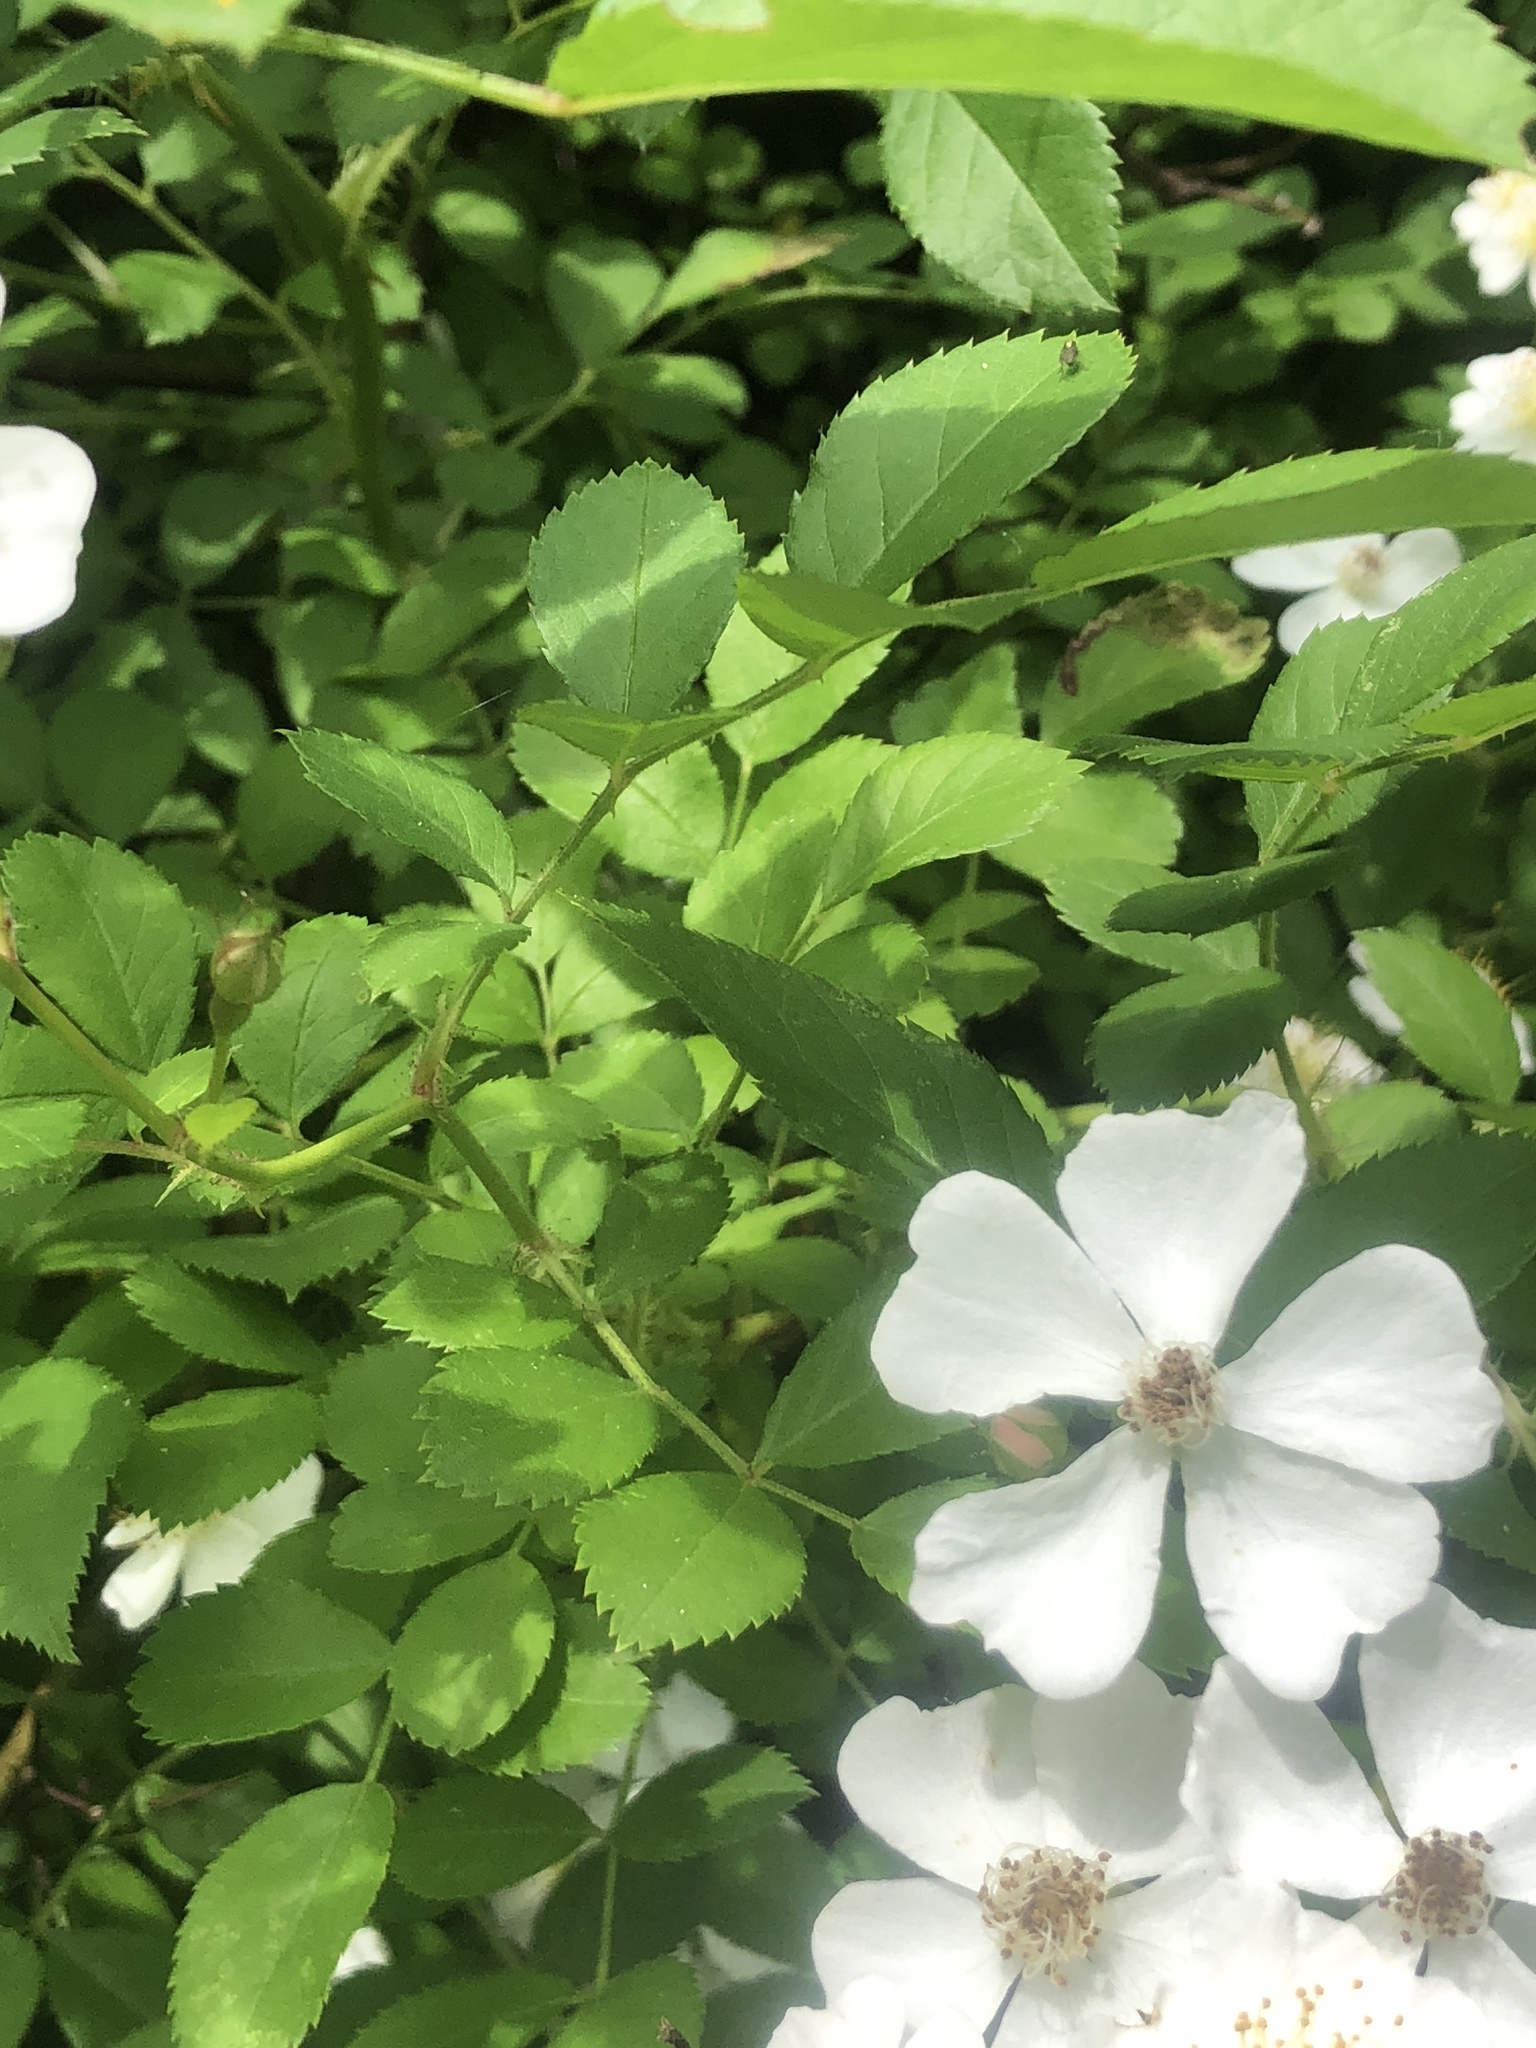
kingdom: Plantae
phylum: Tracheophyta
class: Magnoliopsida
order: Rosales
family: Rosaceae
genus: Rosa
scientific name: Rosa multiflora
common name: Multiflora rose
